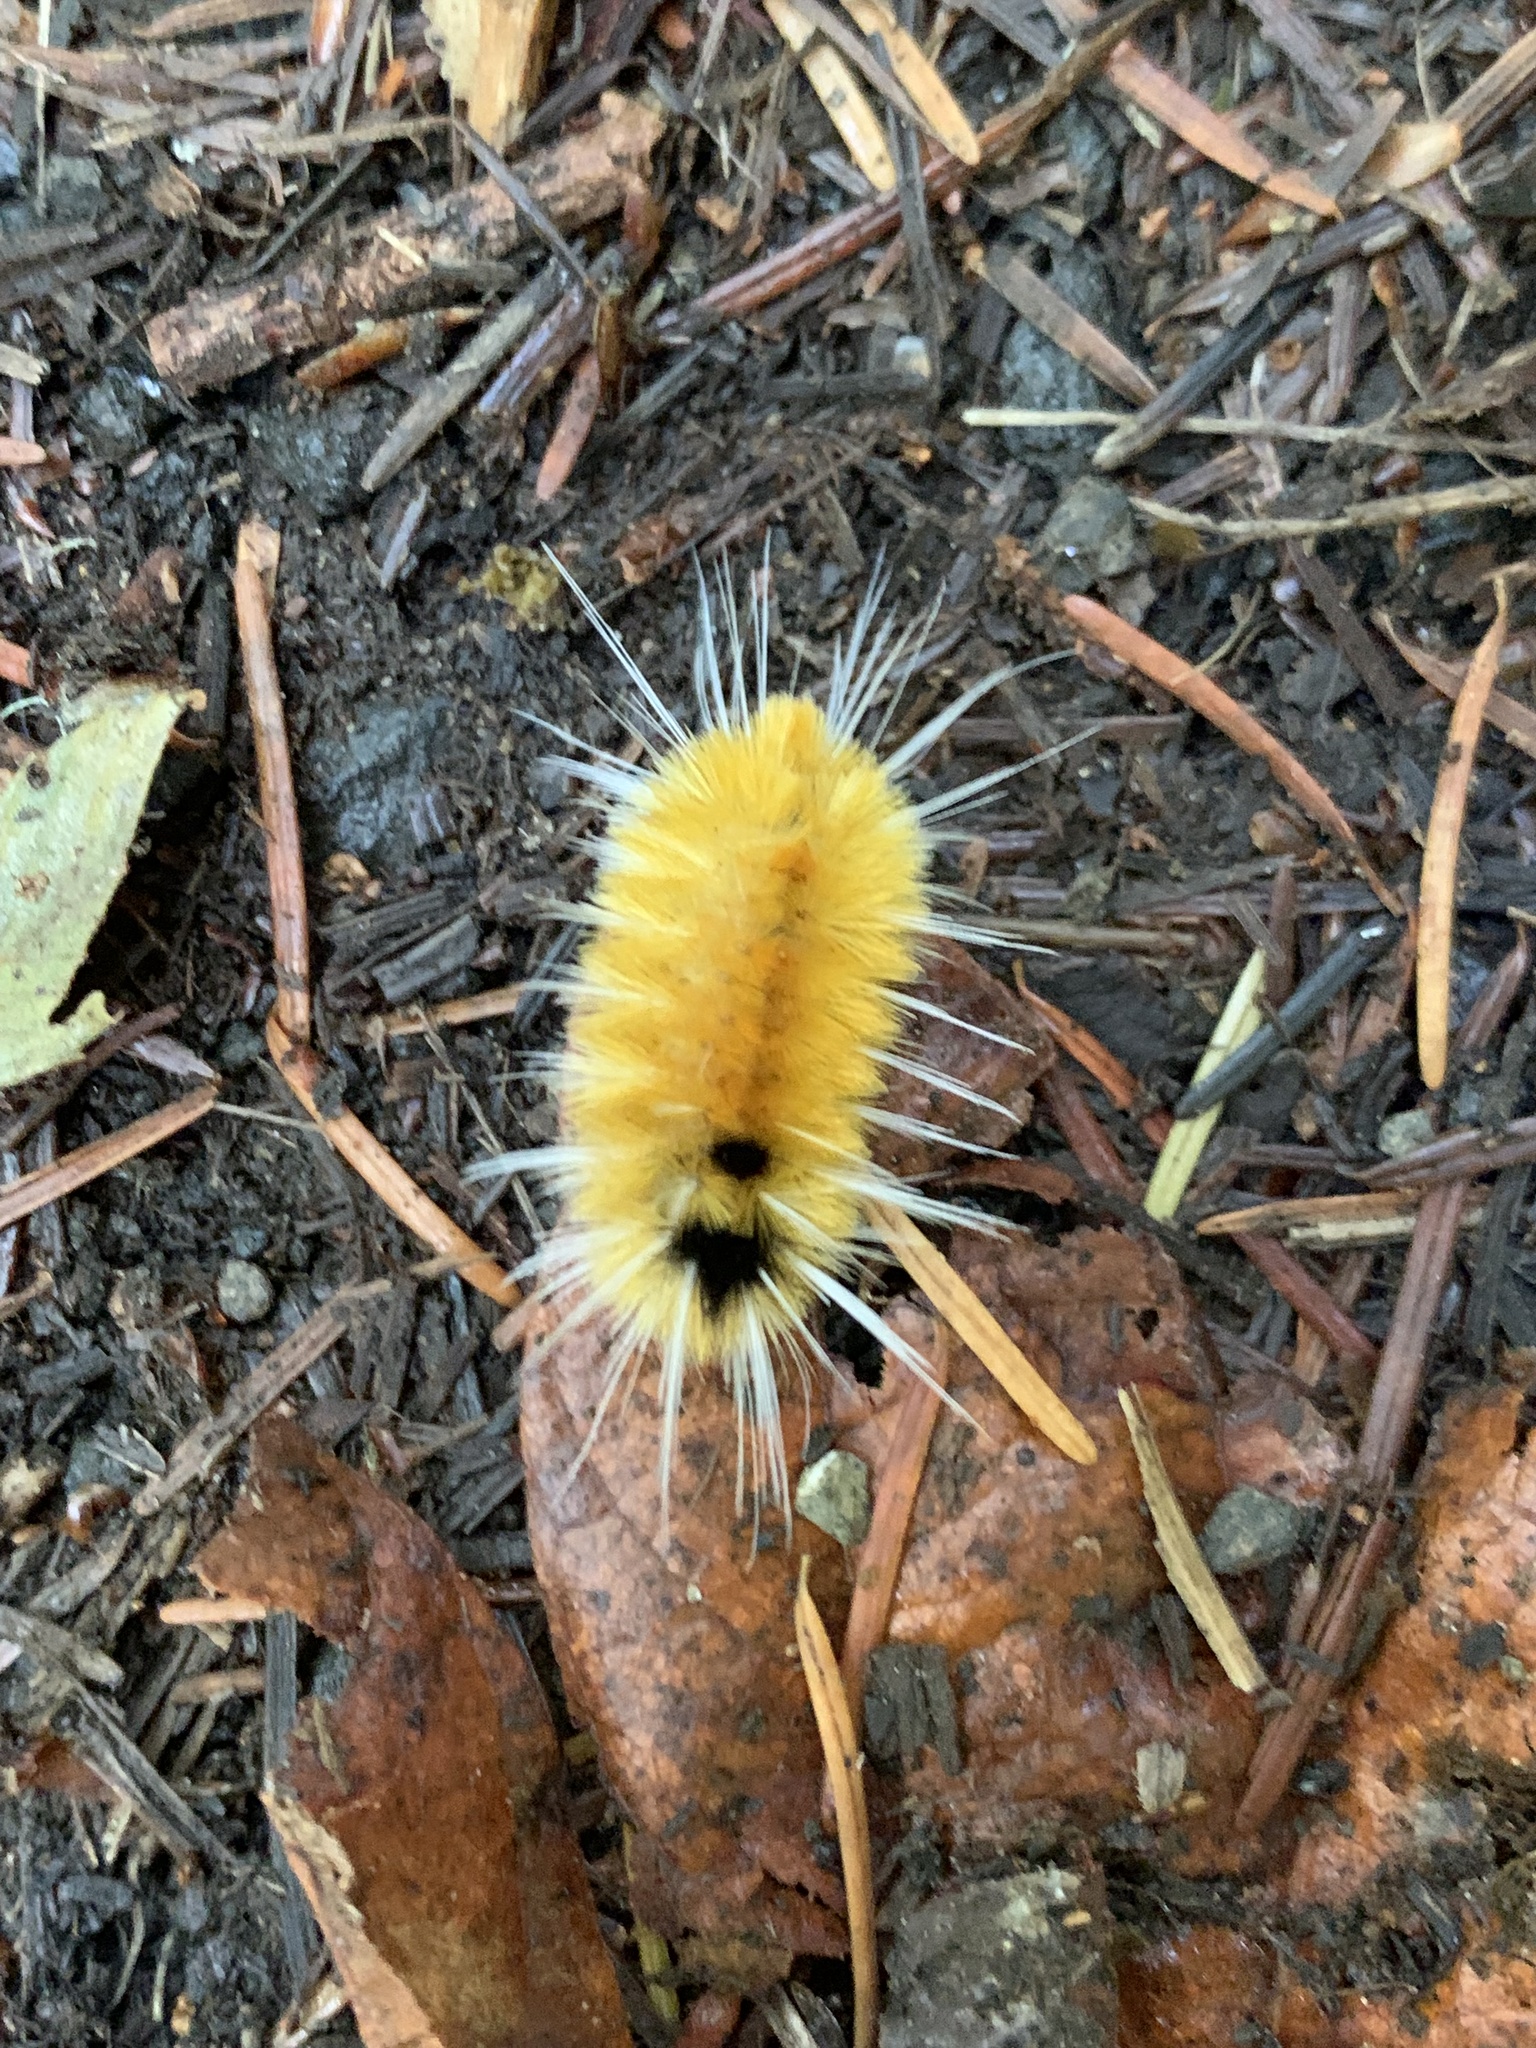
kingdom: Animalia
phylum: Arthropoda
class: Insecta
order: Lepidoptera
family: Erebidae
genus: Lophocampa
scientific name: Lophocampa maculata
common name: Spotted tussock moth
